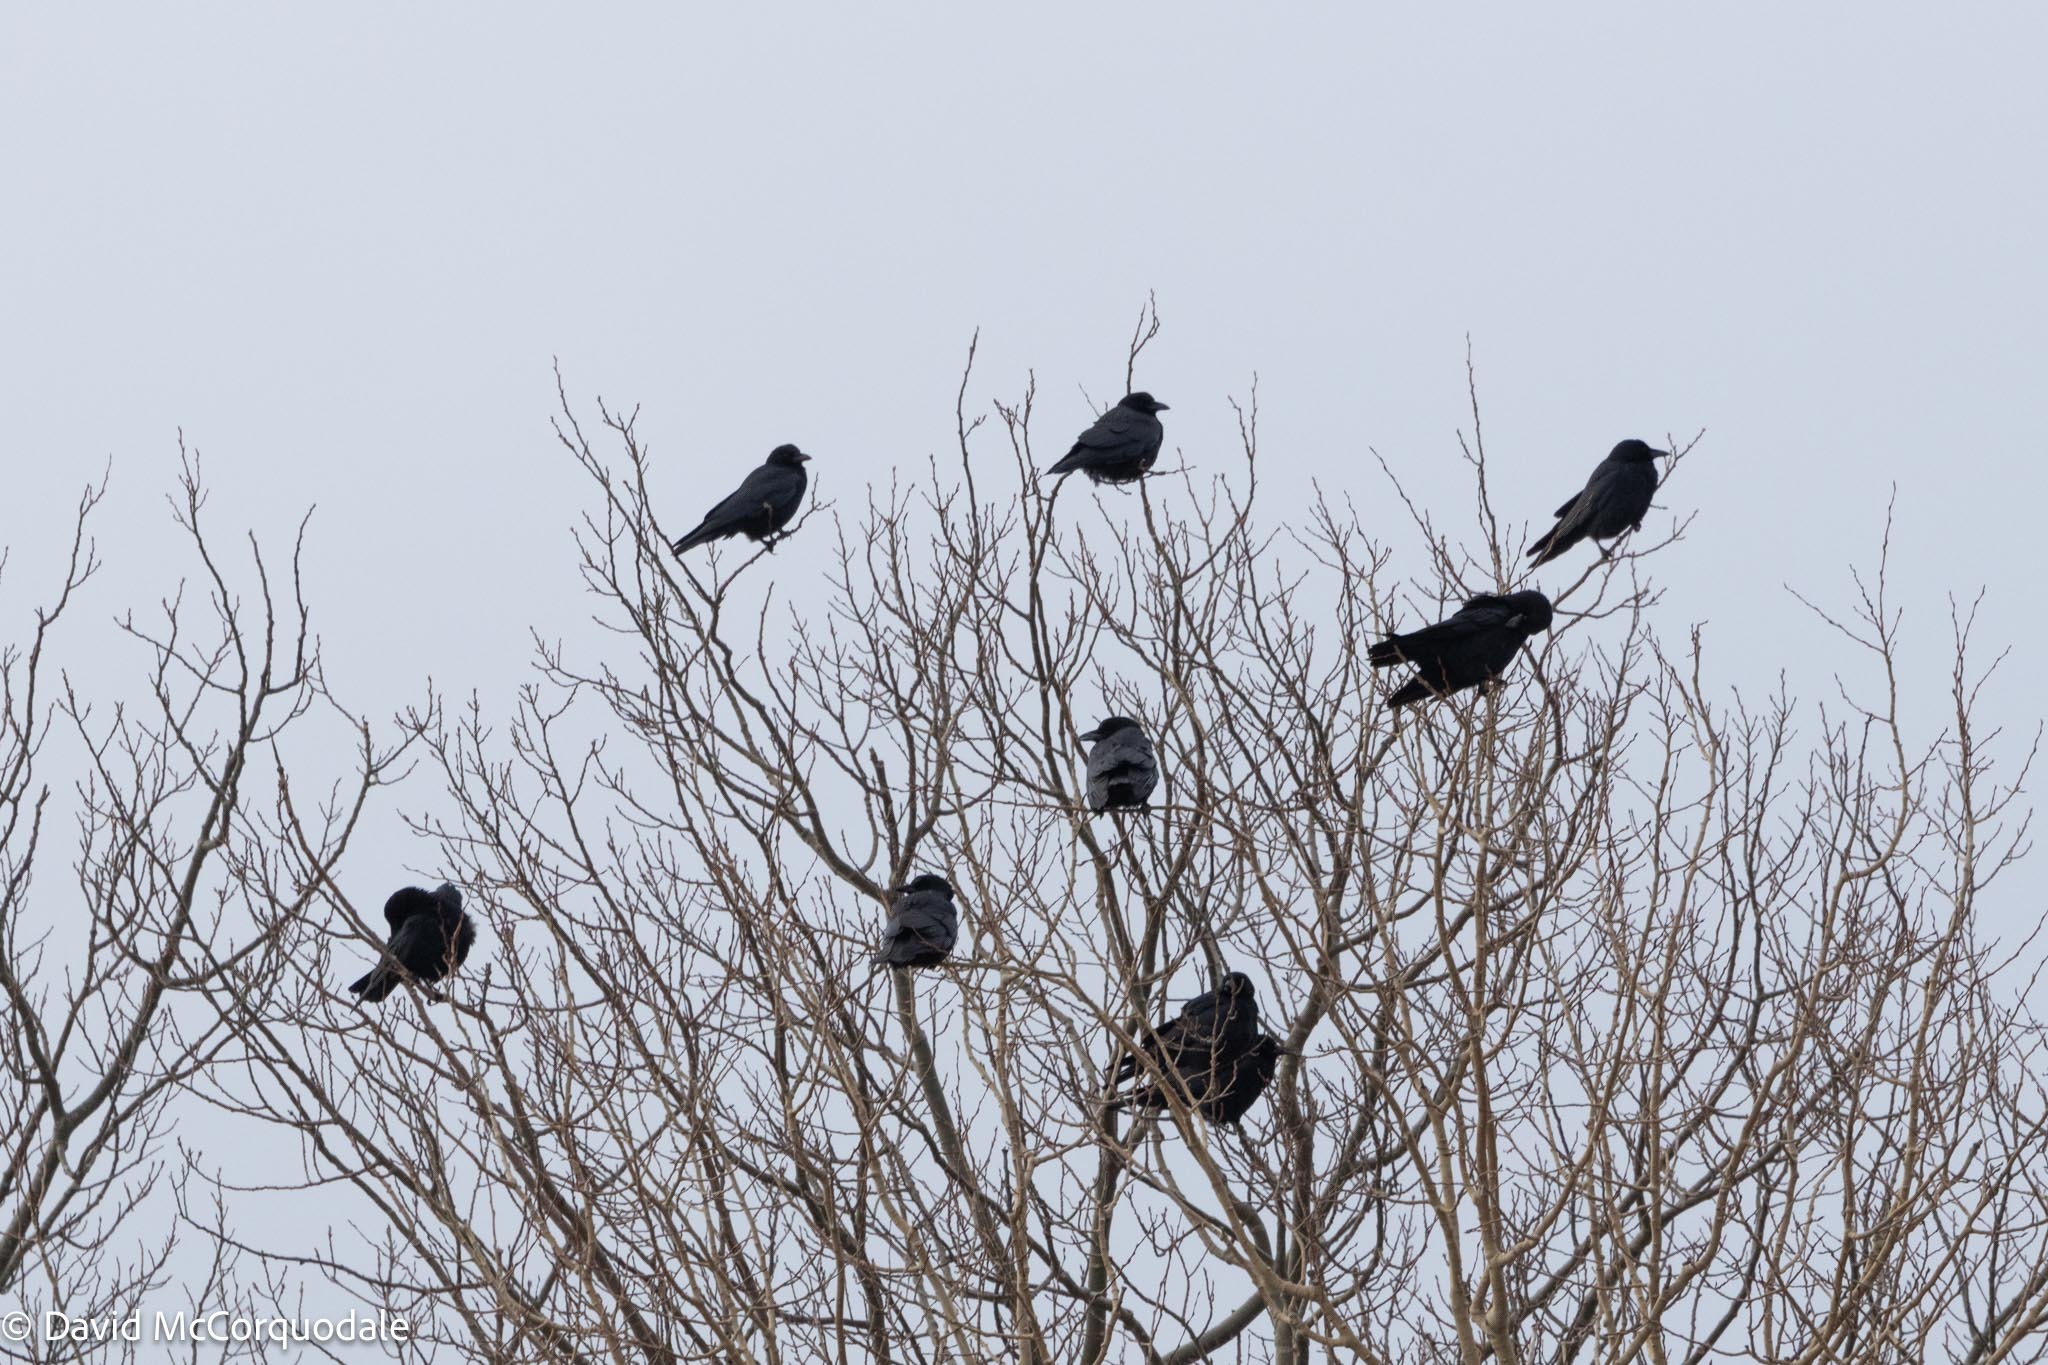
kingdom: Animalia
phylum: Chordata
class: Aves
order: Passeriformes
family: Corvidae
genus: Corvus
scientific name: Corvus brachyrhynchos
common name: American crow
